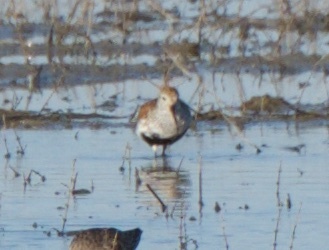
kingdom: Animalia
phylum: Chordata
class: Aves
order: Charadriiformes
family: Scolopacidae
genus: Calidris
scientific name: Calidris alpina
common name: Dunlin
